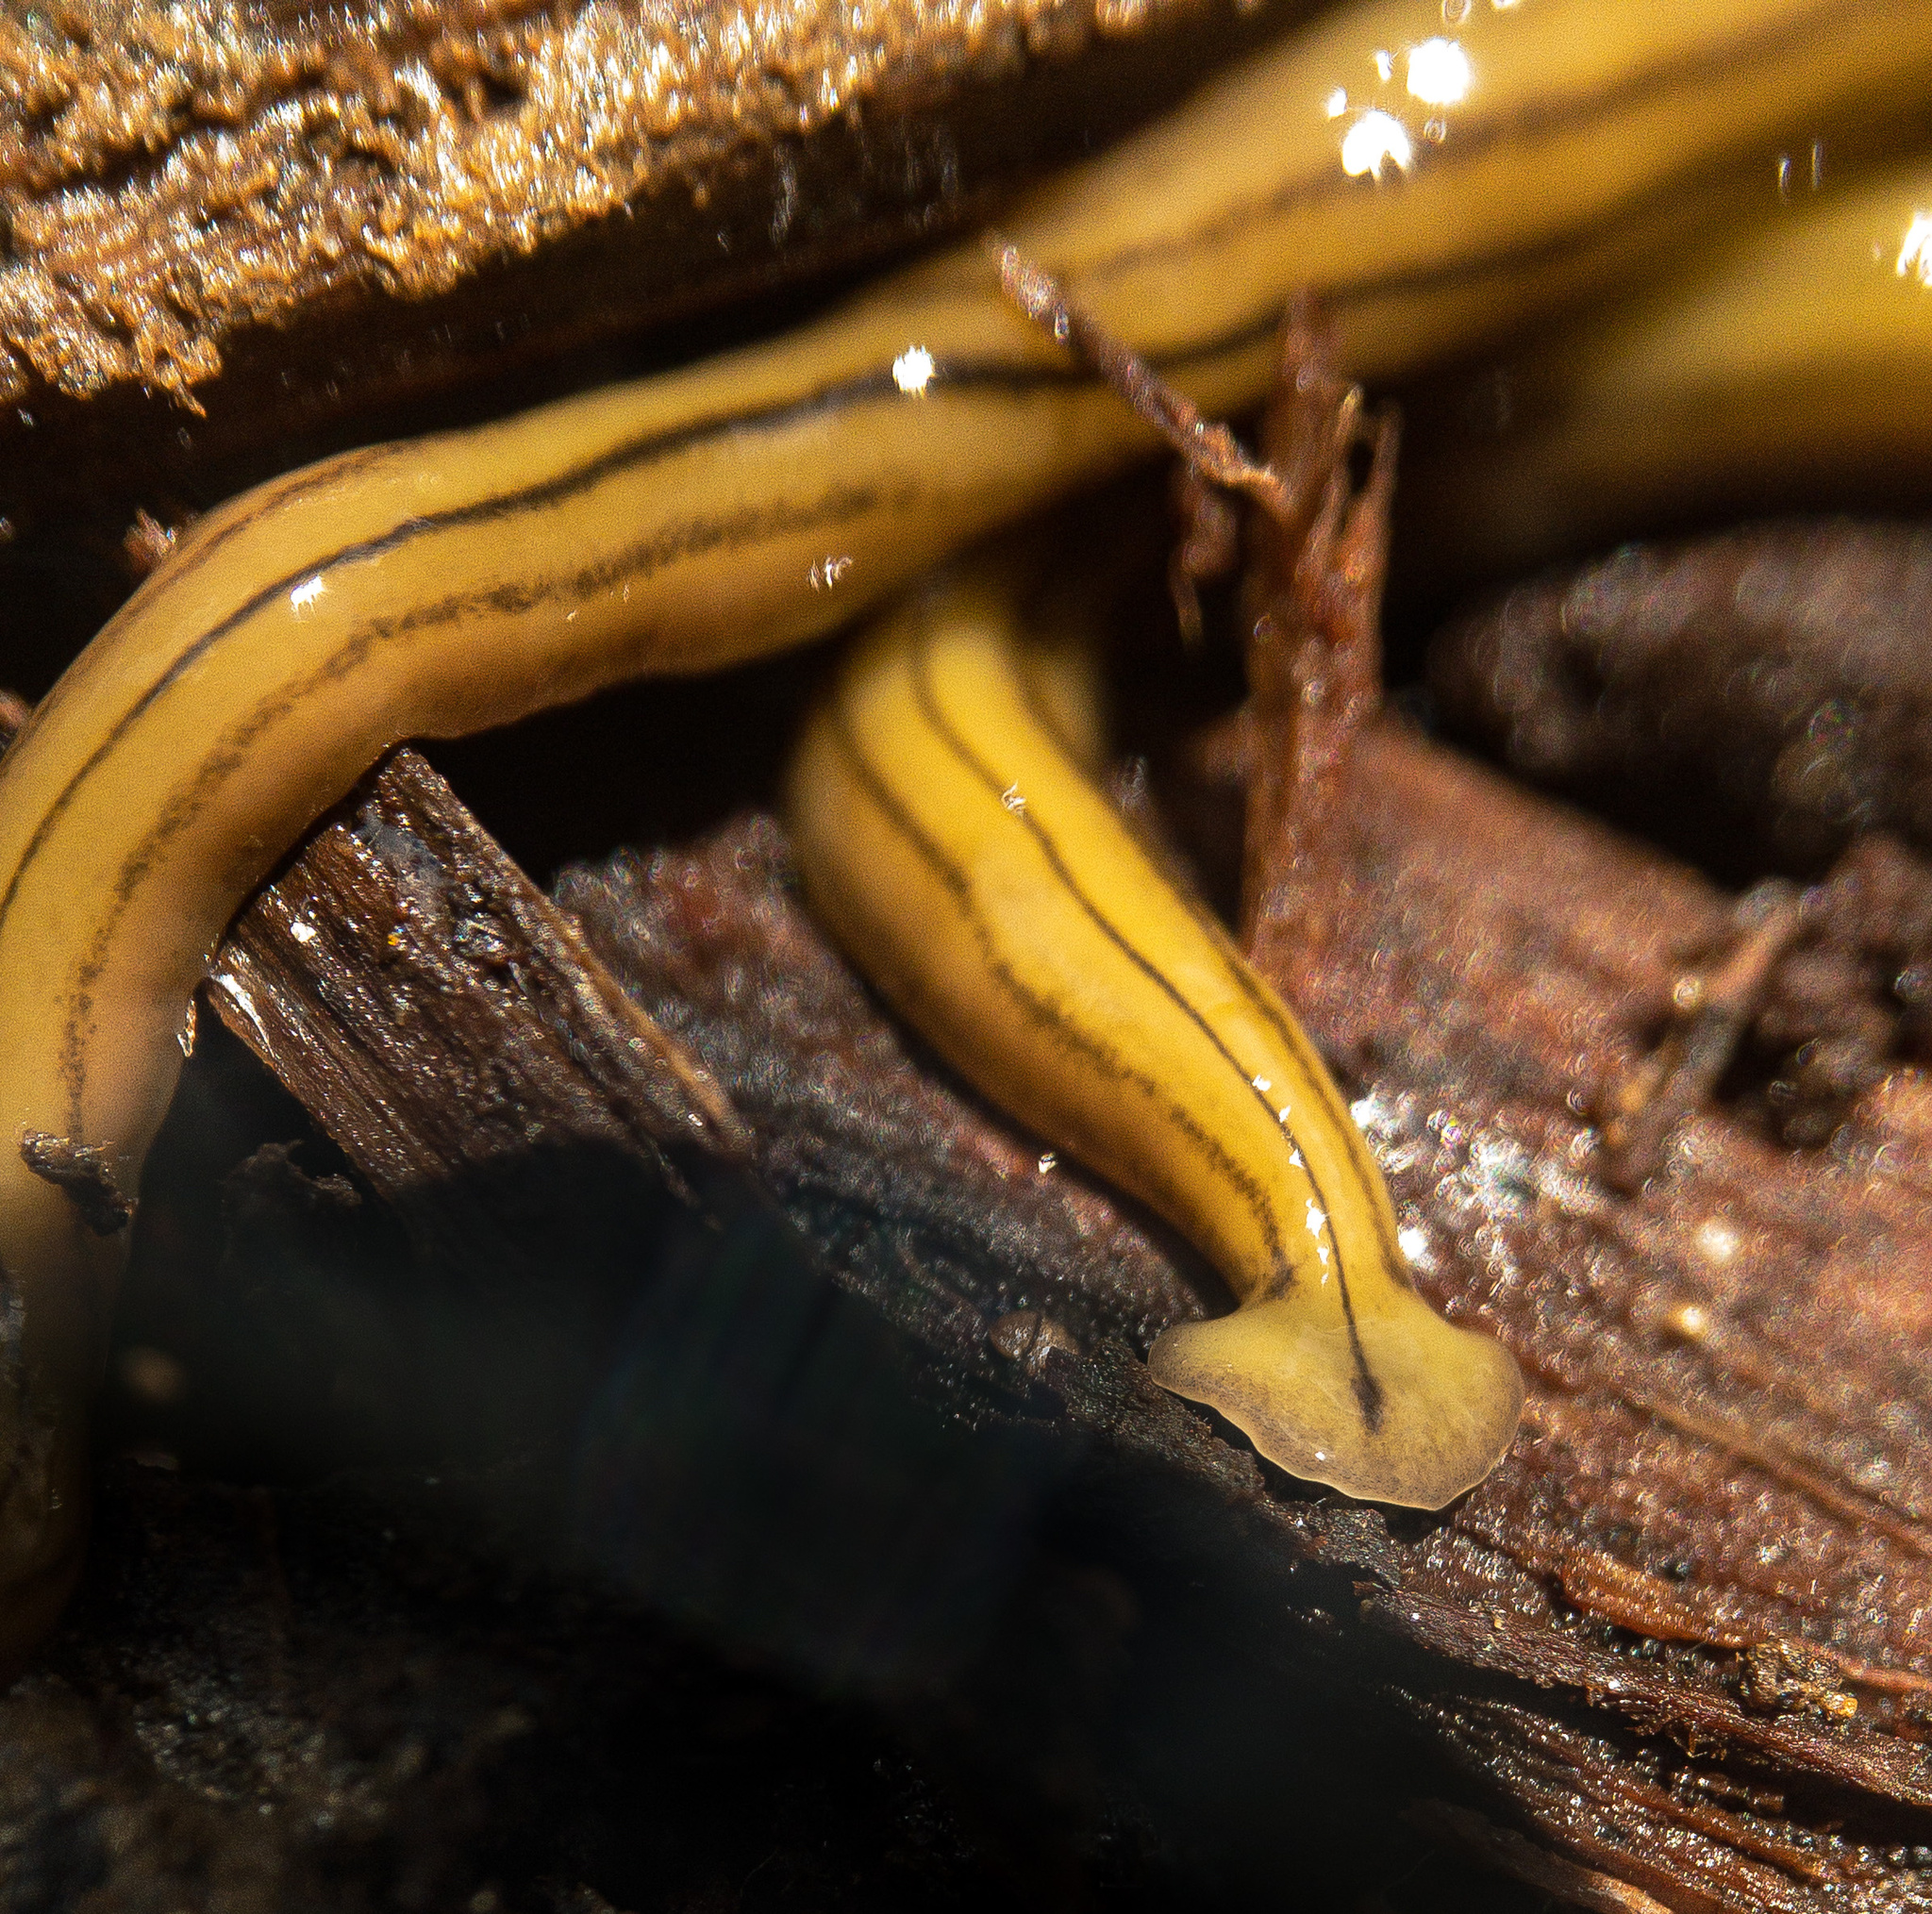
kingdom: Animalia
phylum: Platyhelminthes
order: Tricladida
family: Geoplanidae
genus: Diversibipalium
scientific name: Diversibipalium multilineatum
